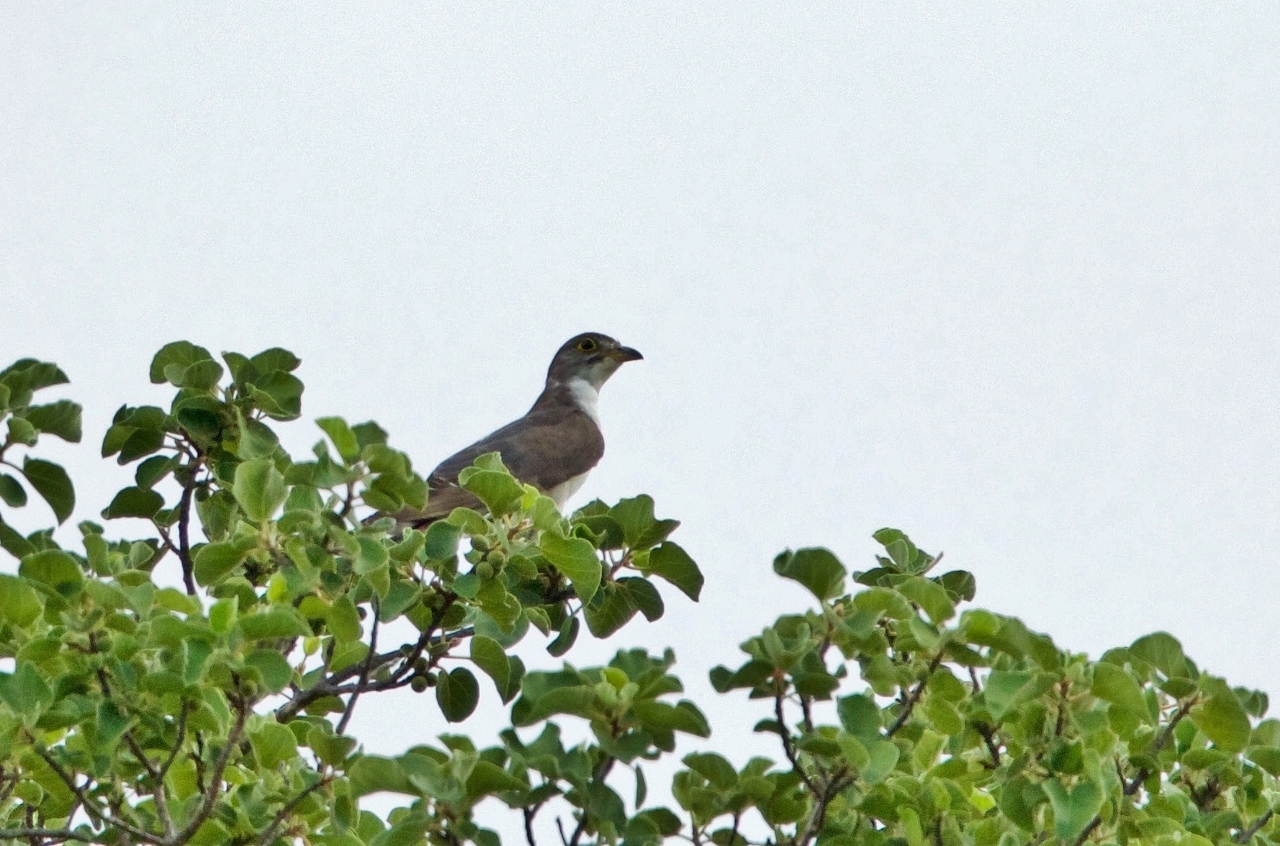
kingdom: Animalia
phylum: Chordata
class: Aves
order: Cuculiformes
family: Cuculidae
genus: Pachycoccyx
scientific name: Pachycoccyx audeberti
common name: Thick-billed cuckoo
